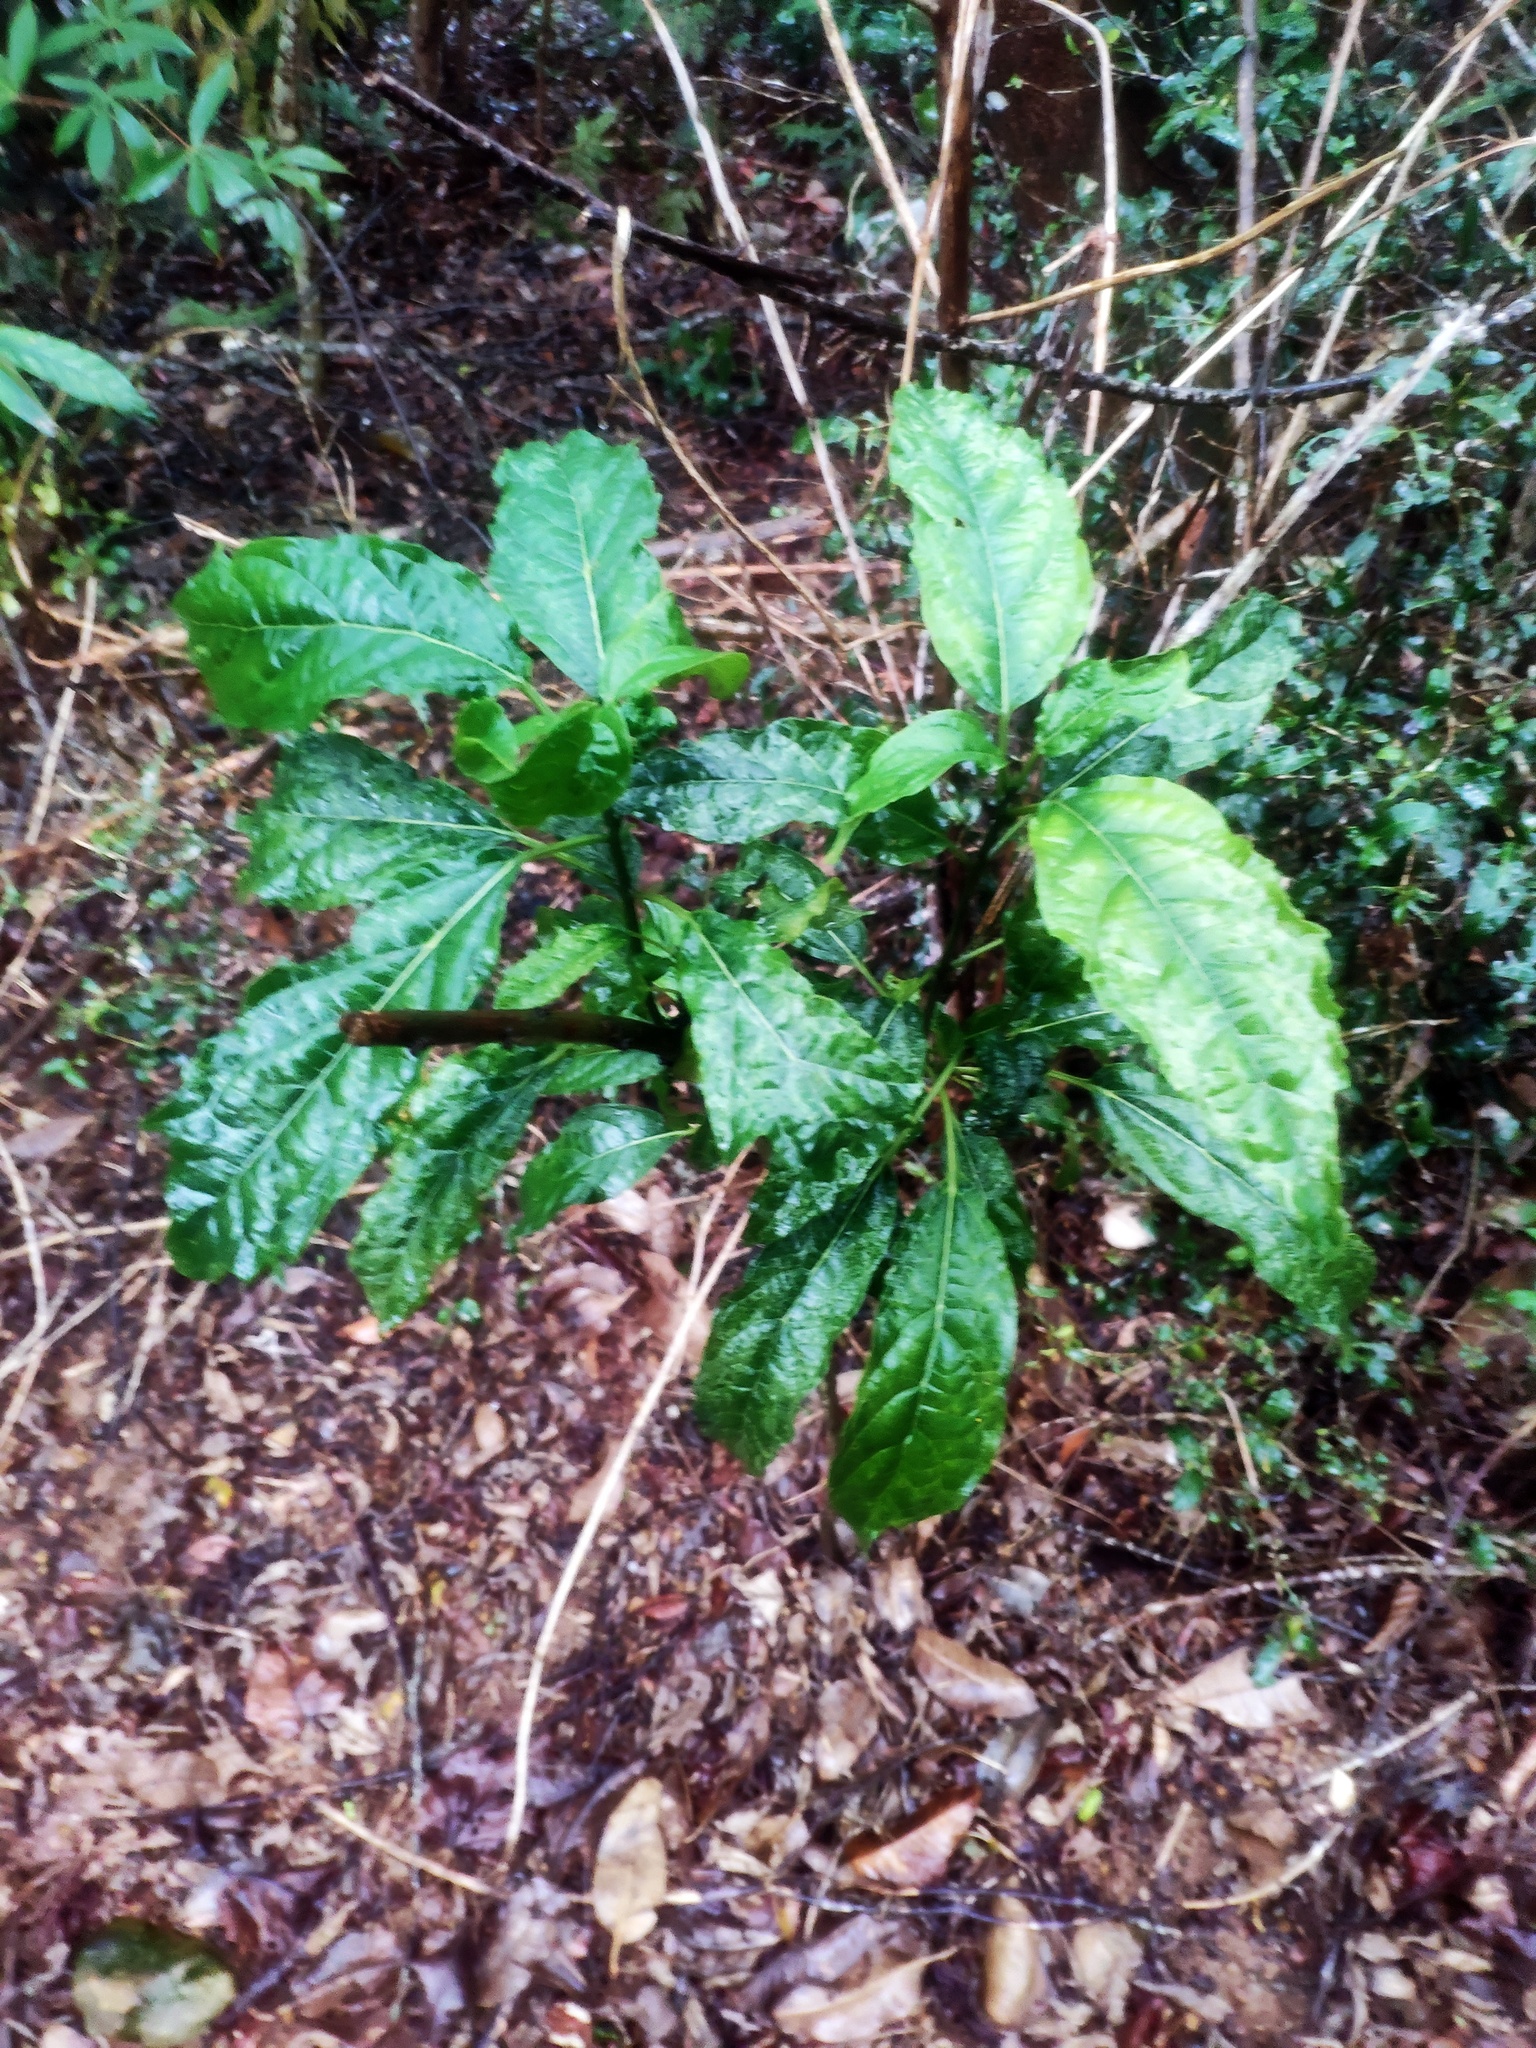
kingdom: Plantae
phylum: Tracheophyta
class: Magnoliopsida
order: Lamiales
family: Lamiaceae
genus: Clerodendrum
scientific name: Clerodendrum cyrtophyllum
